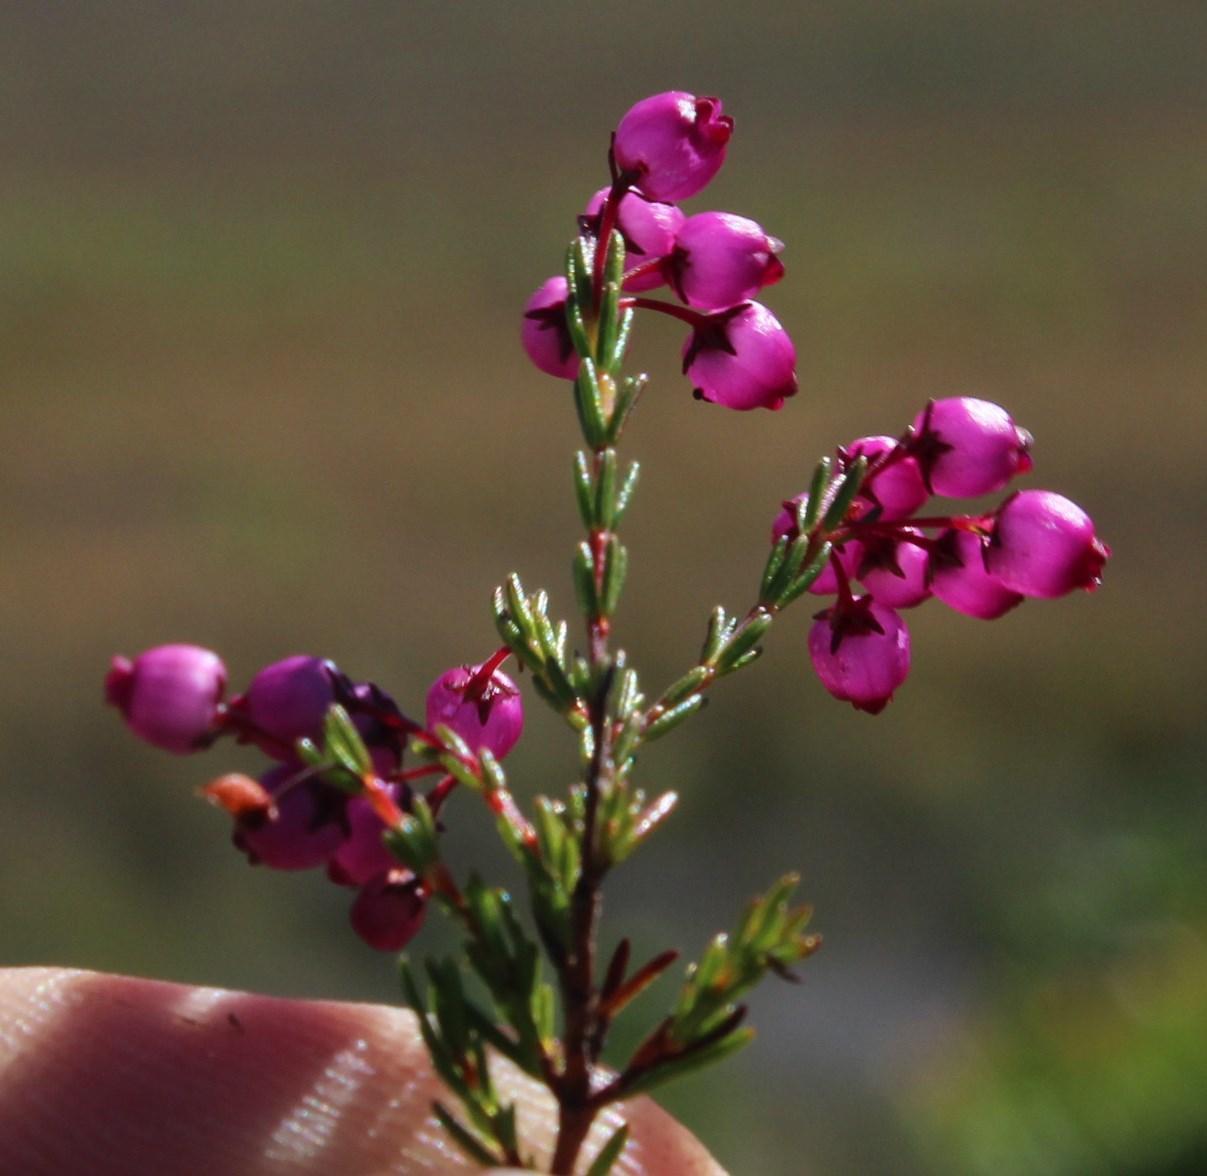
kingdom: Plantae
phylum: Tracheophyta
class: Magnoliopsida
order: Ericales
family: Ericaceae
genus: Erica
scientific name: Erica multumbellifera
